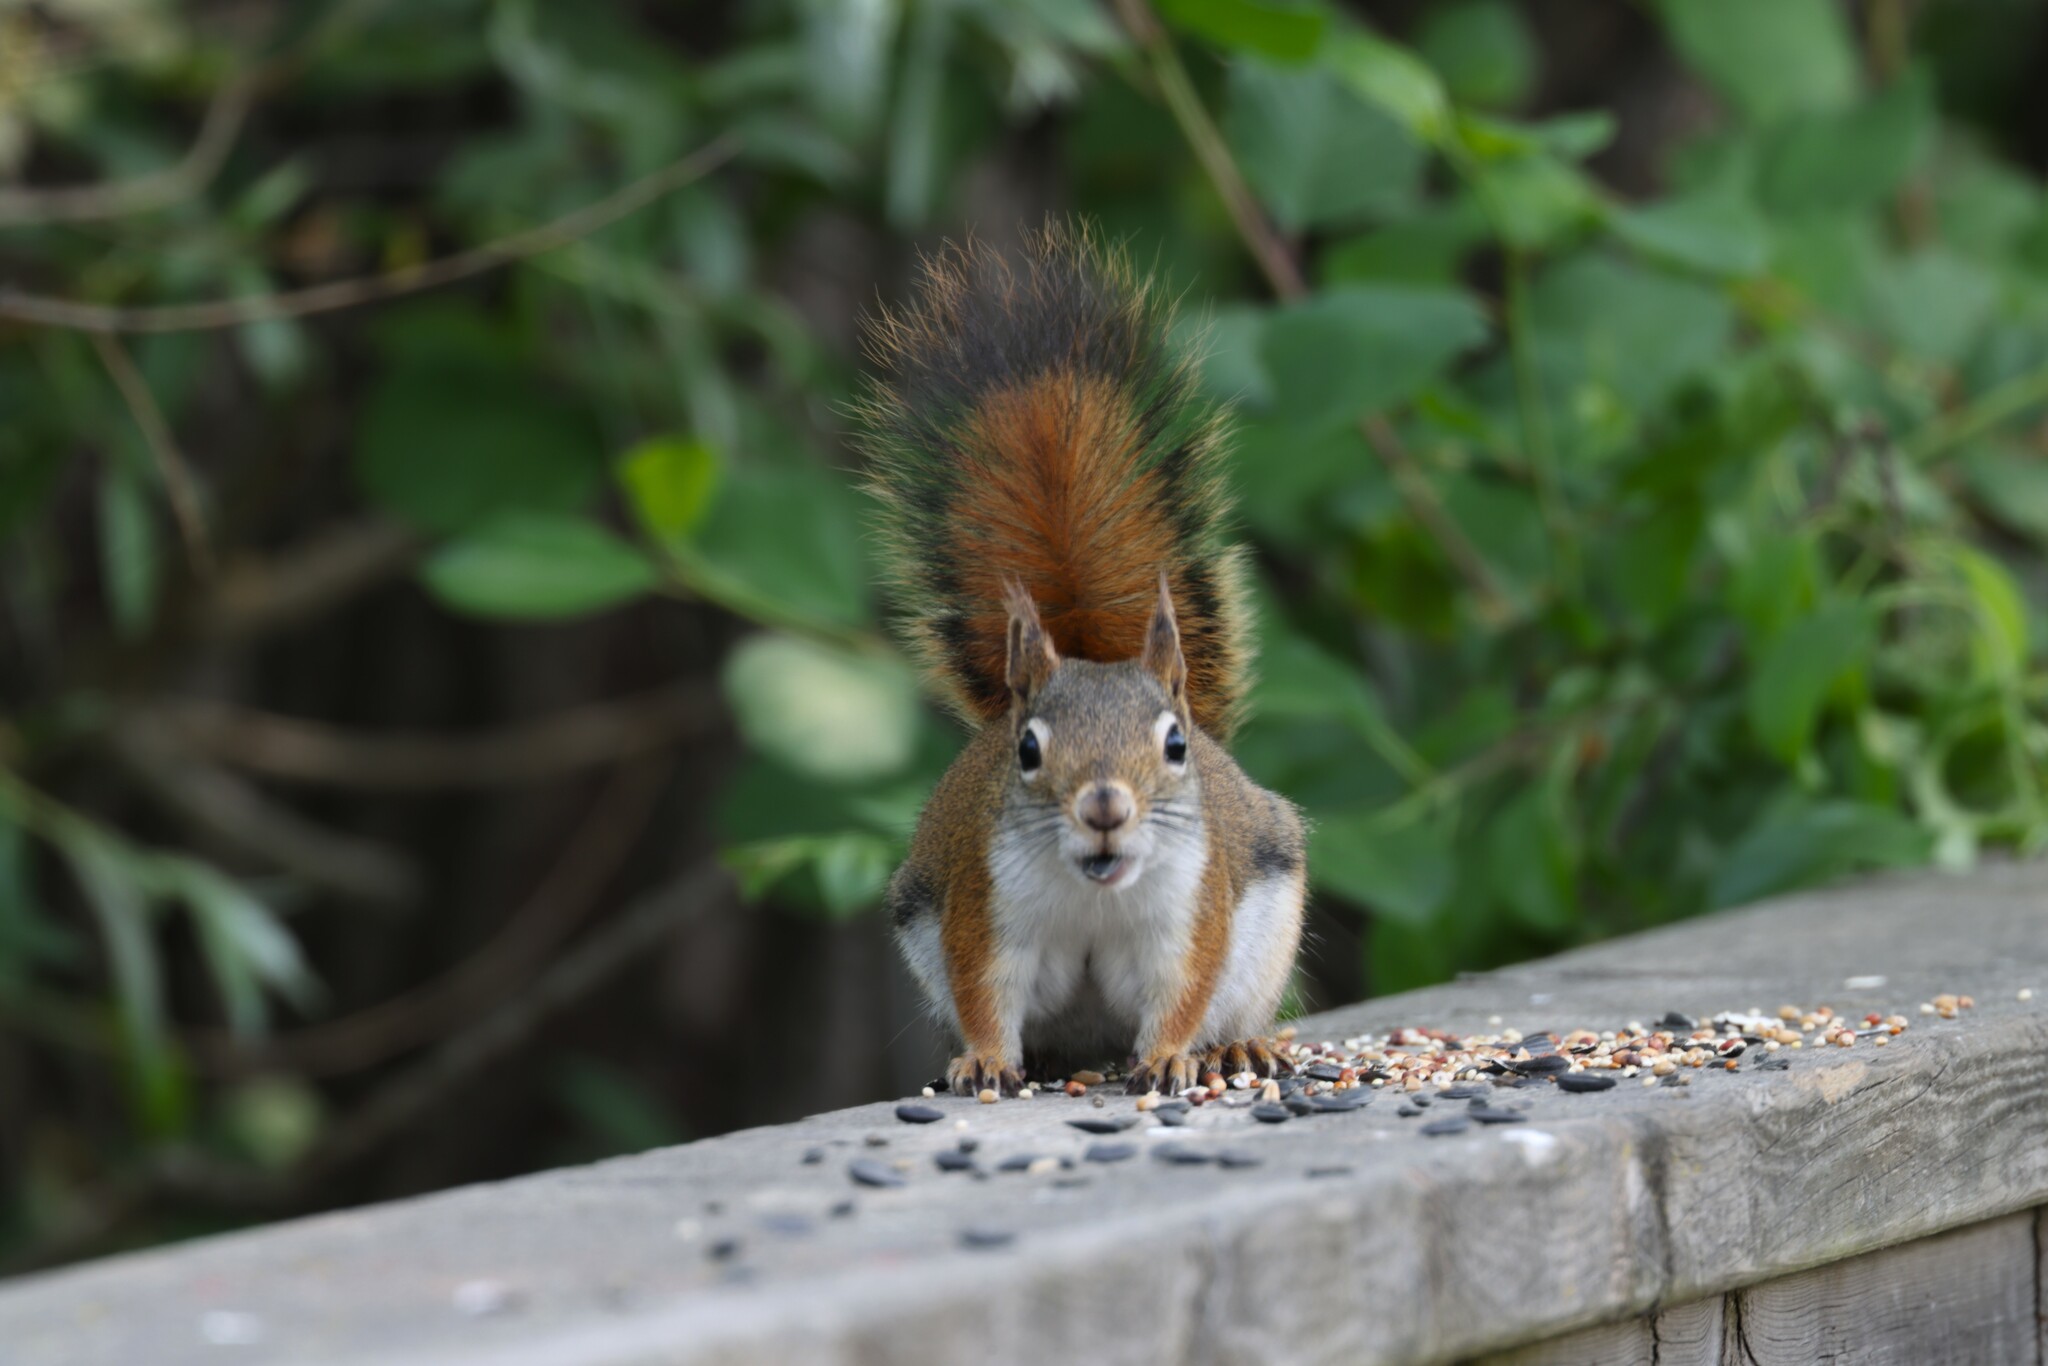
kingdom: Animalia
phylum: Chordata
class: Mammalia
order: Rodentia
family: Sciuridae
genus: Tamiasciurus
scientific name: Tamiasciurus hudsonicus
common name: Red squirrel
